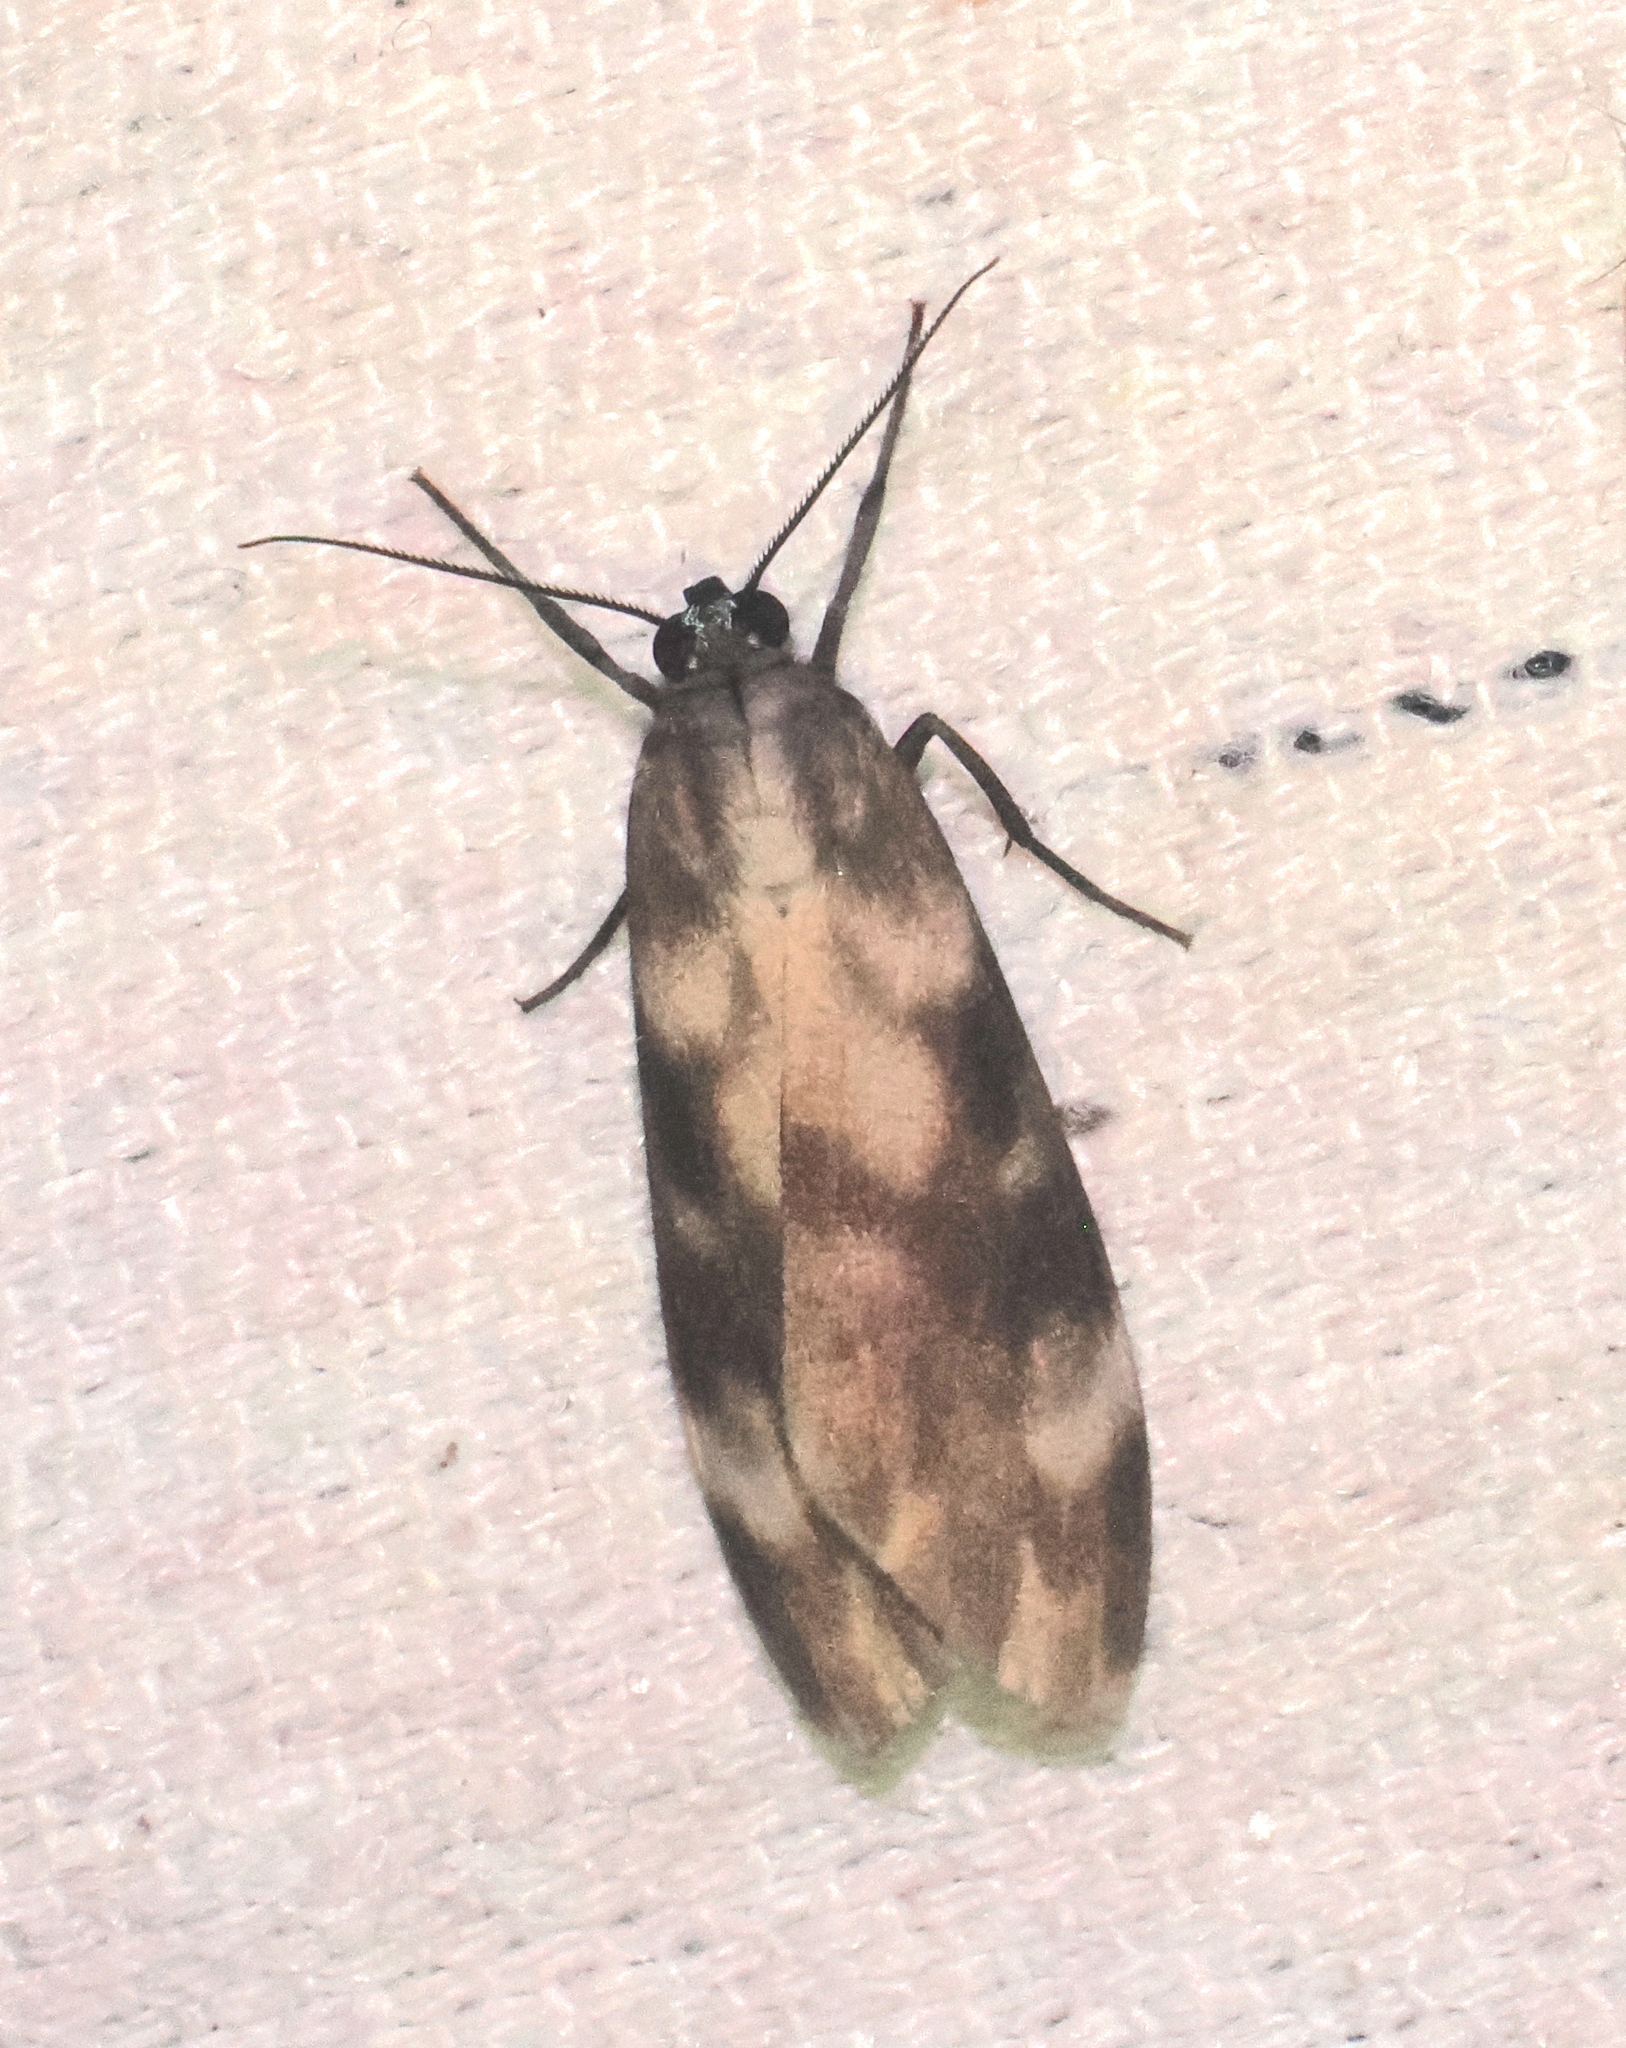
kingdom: Animalia
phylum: Arthropoda
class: Insecta
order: Lepidoptera
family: Erebidae
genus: Eucereon
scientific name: Eucereon discolor
